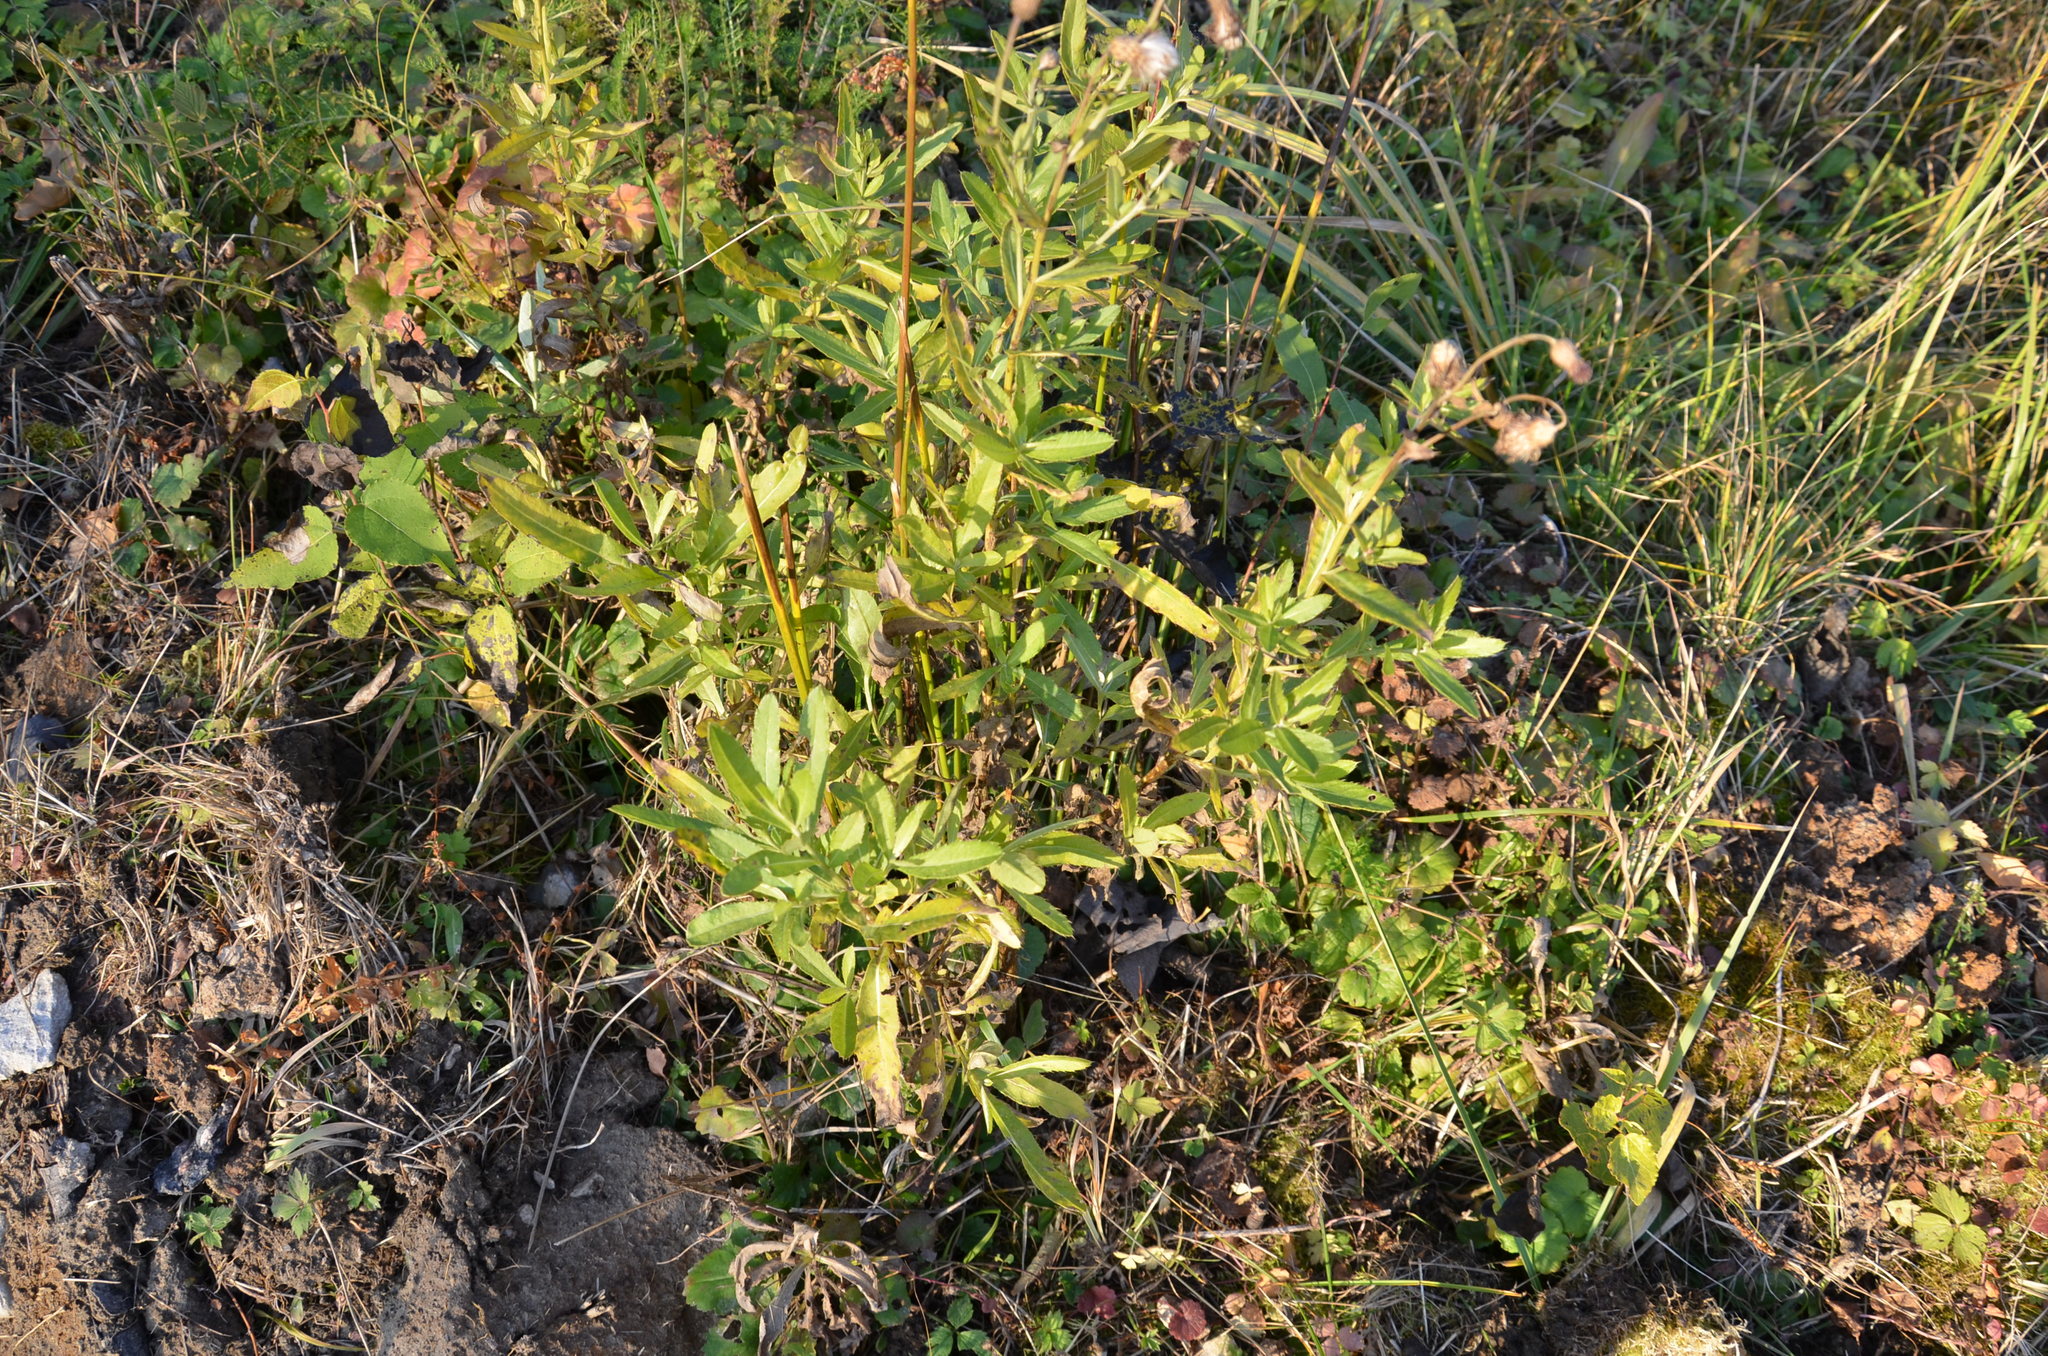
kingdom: Plantae
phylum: Tracheophyta
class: Magnoliopsida
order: Asterales
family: Asteraceae
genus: Cirsium
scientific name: Cirsium arvense
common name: Creeping thistle
